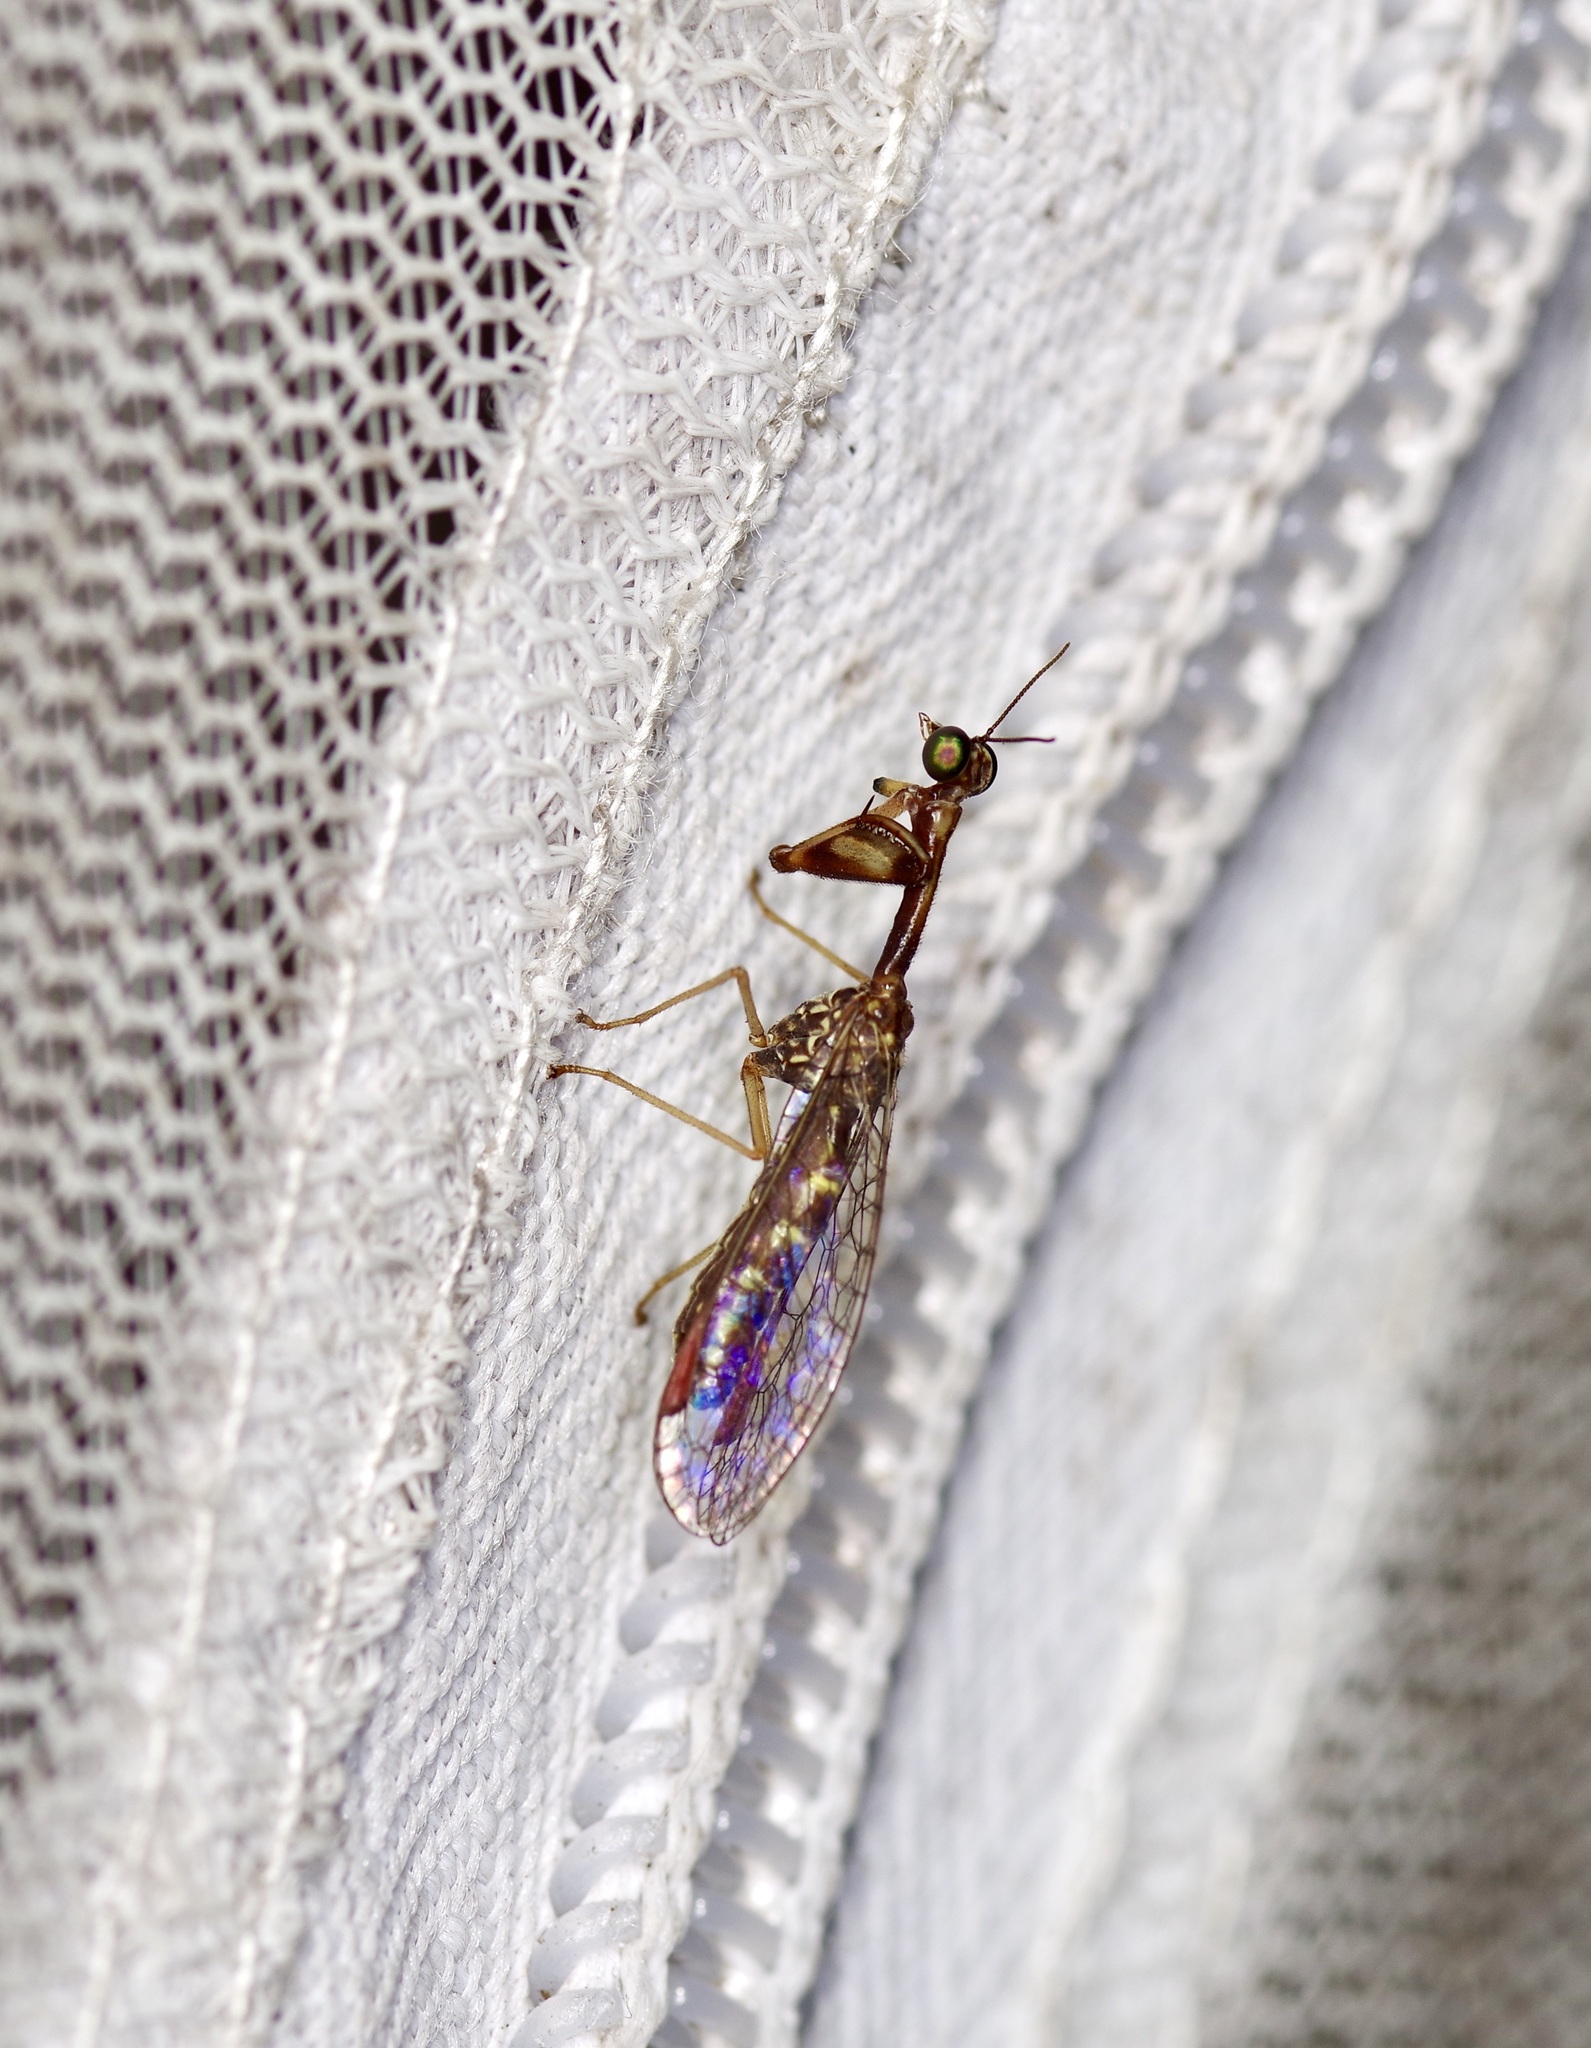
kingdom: Animalia
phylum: Arthropoda
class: Insecta
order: Neuroptera
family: Mantispidae
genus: Leptomantispa
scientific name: Leptomantispa pulchella
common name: Stevens's mantidfly
